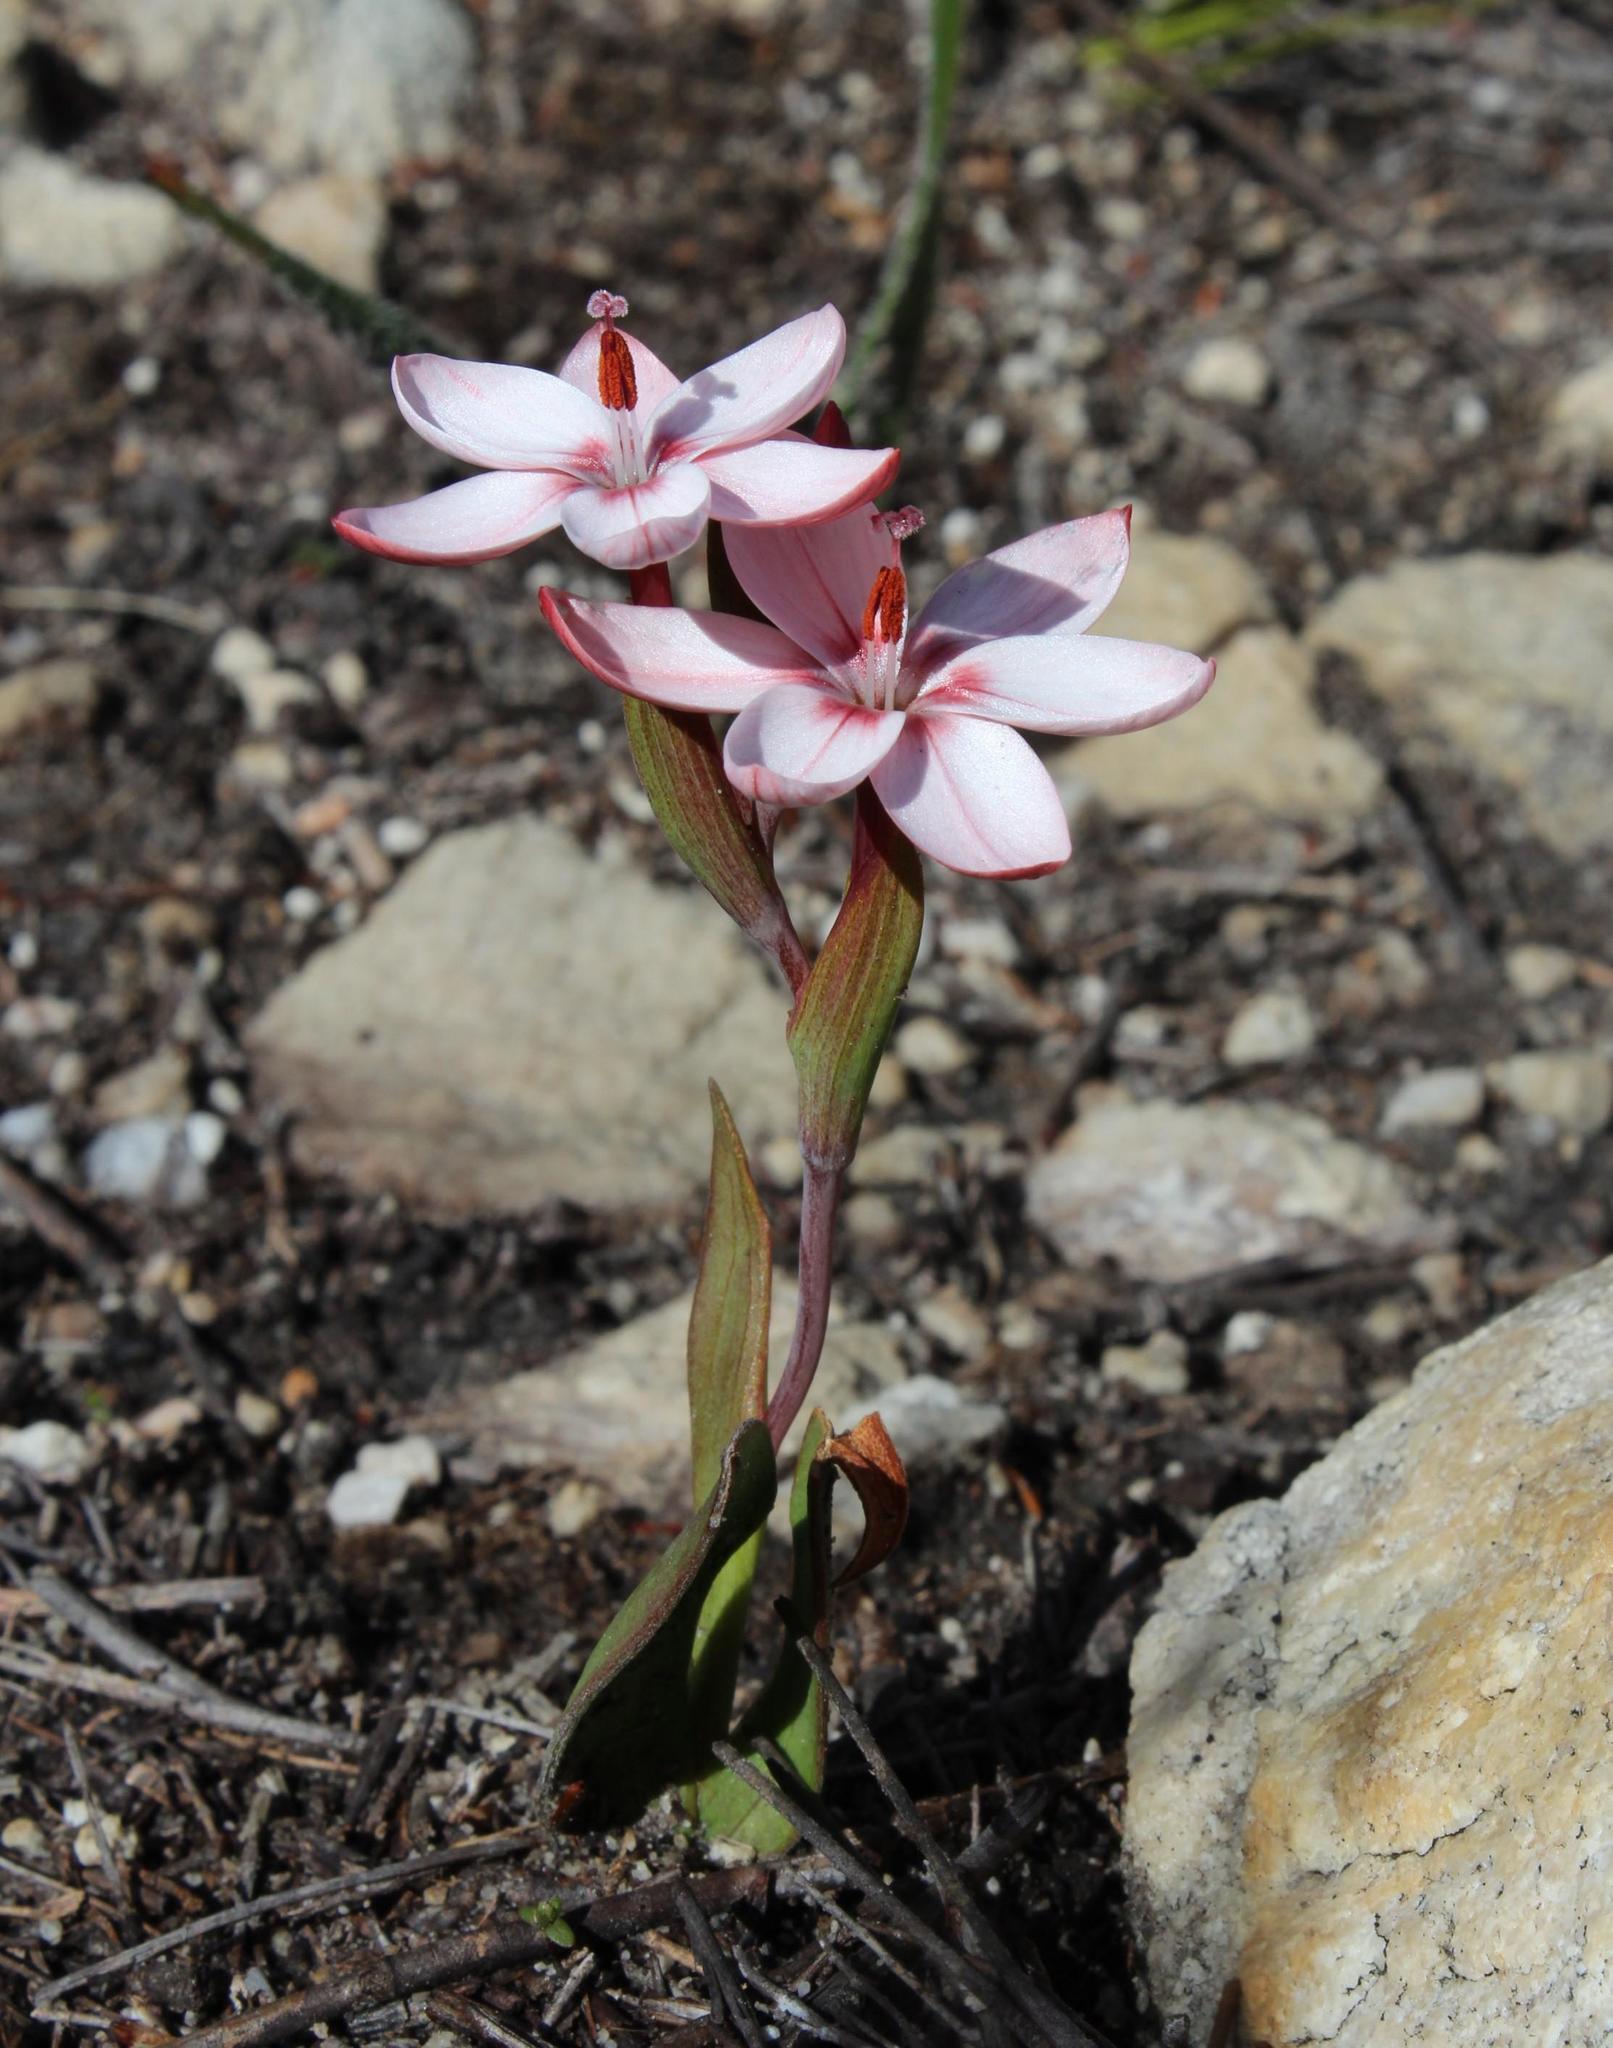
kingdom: Plantae
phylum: Tracheophyta
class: Liliopsida
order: Asparagales
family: Iridaceae
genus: Geissorhiza
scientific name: Geissorhiza ovata
